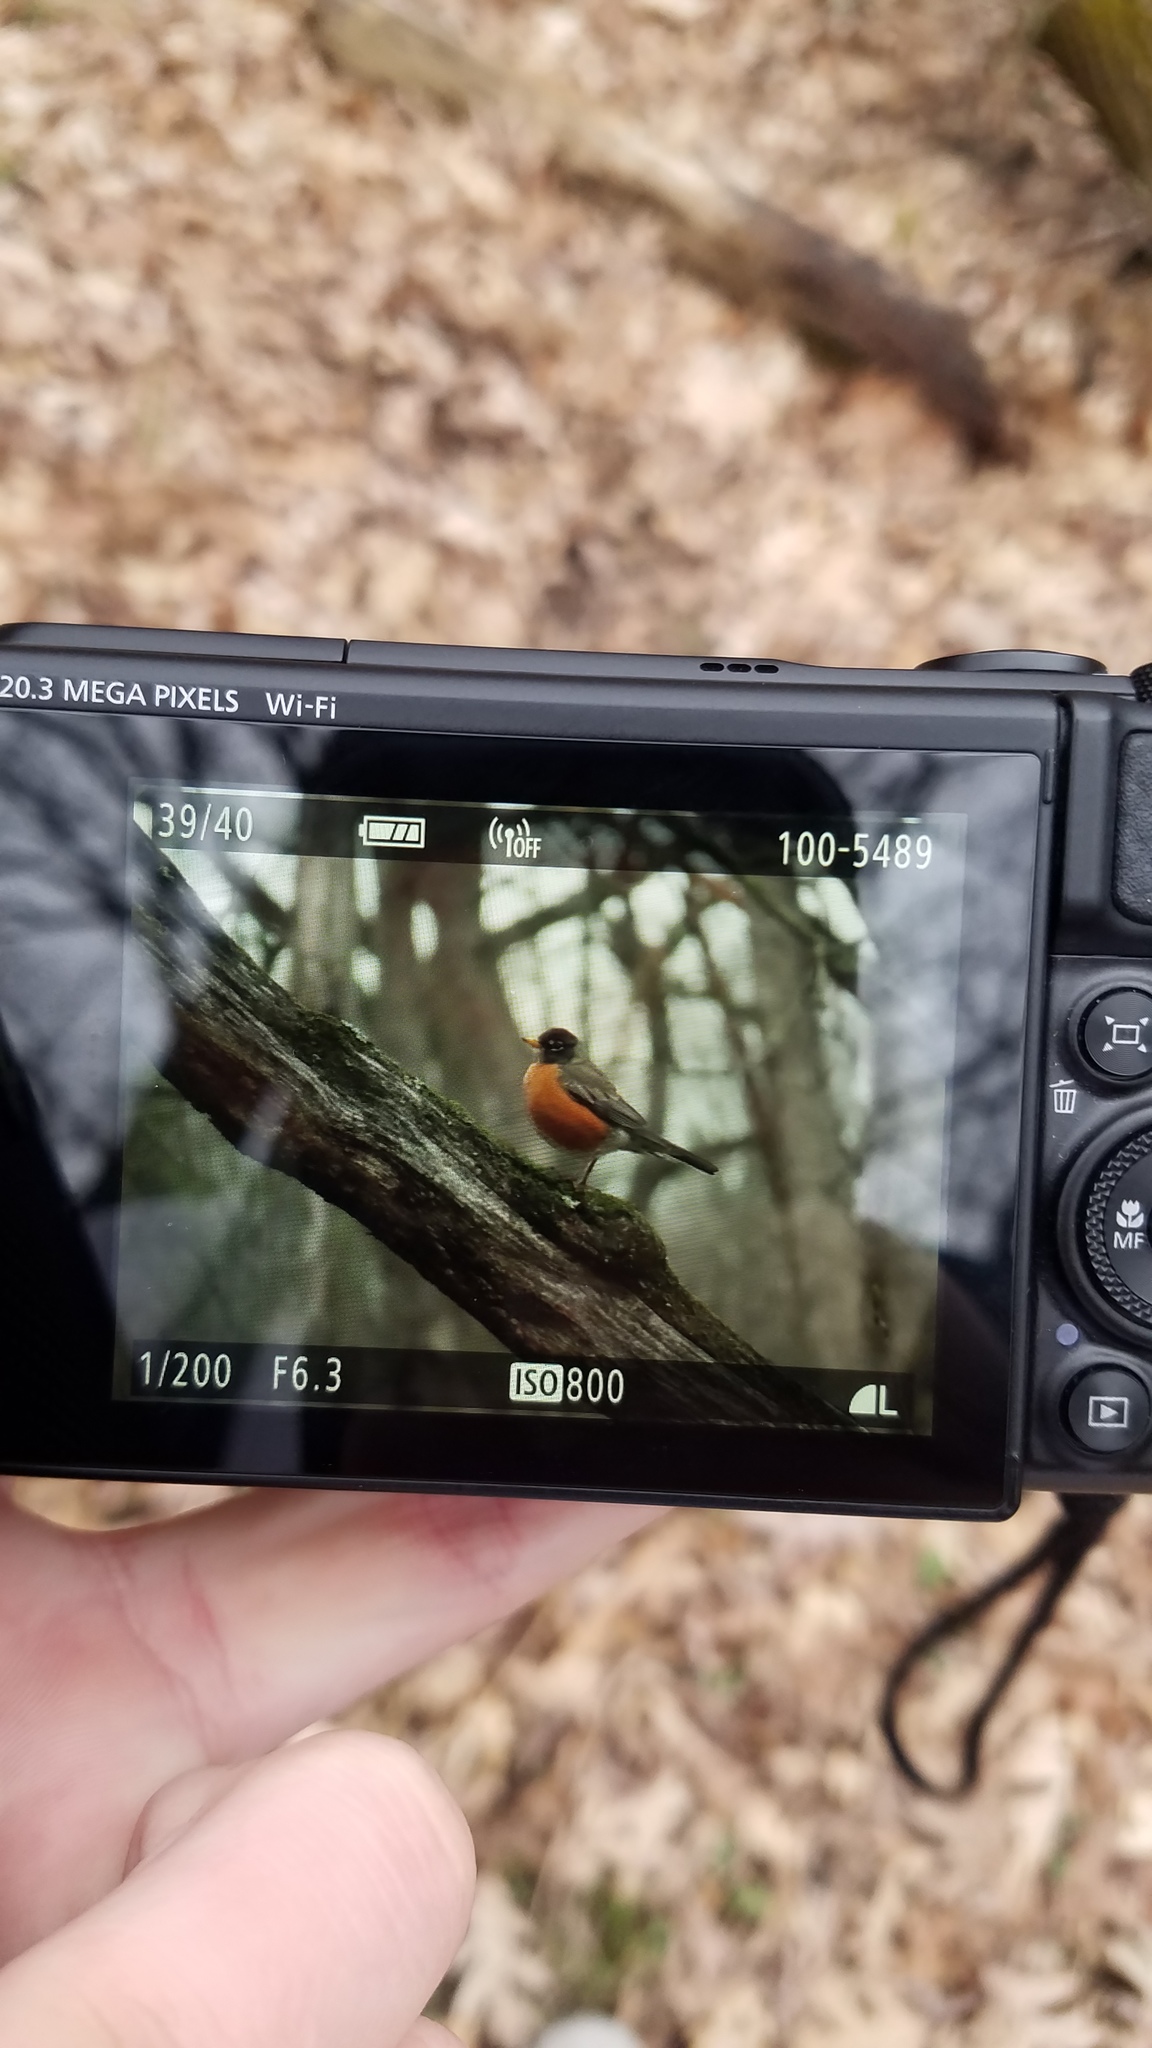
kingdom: Animalia
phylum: Chordata
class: Aves
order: Passeriformes
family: Turdidae
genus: Turdus
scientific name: Turdus migratorius
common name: American robin
